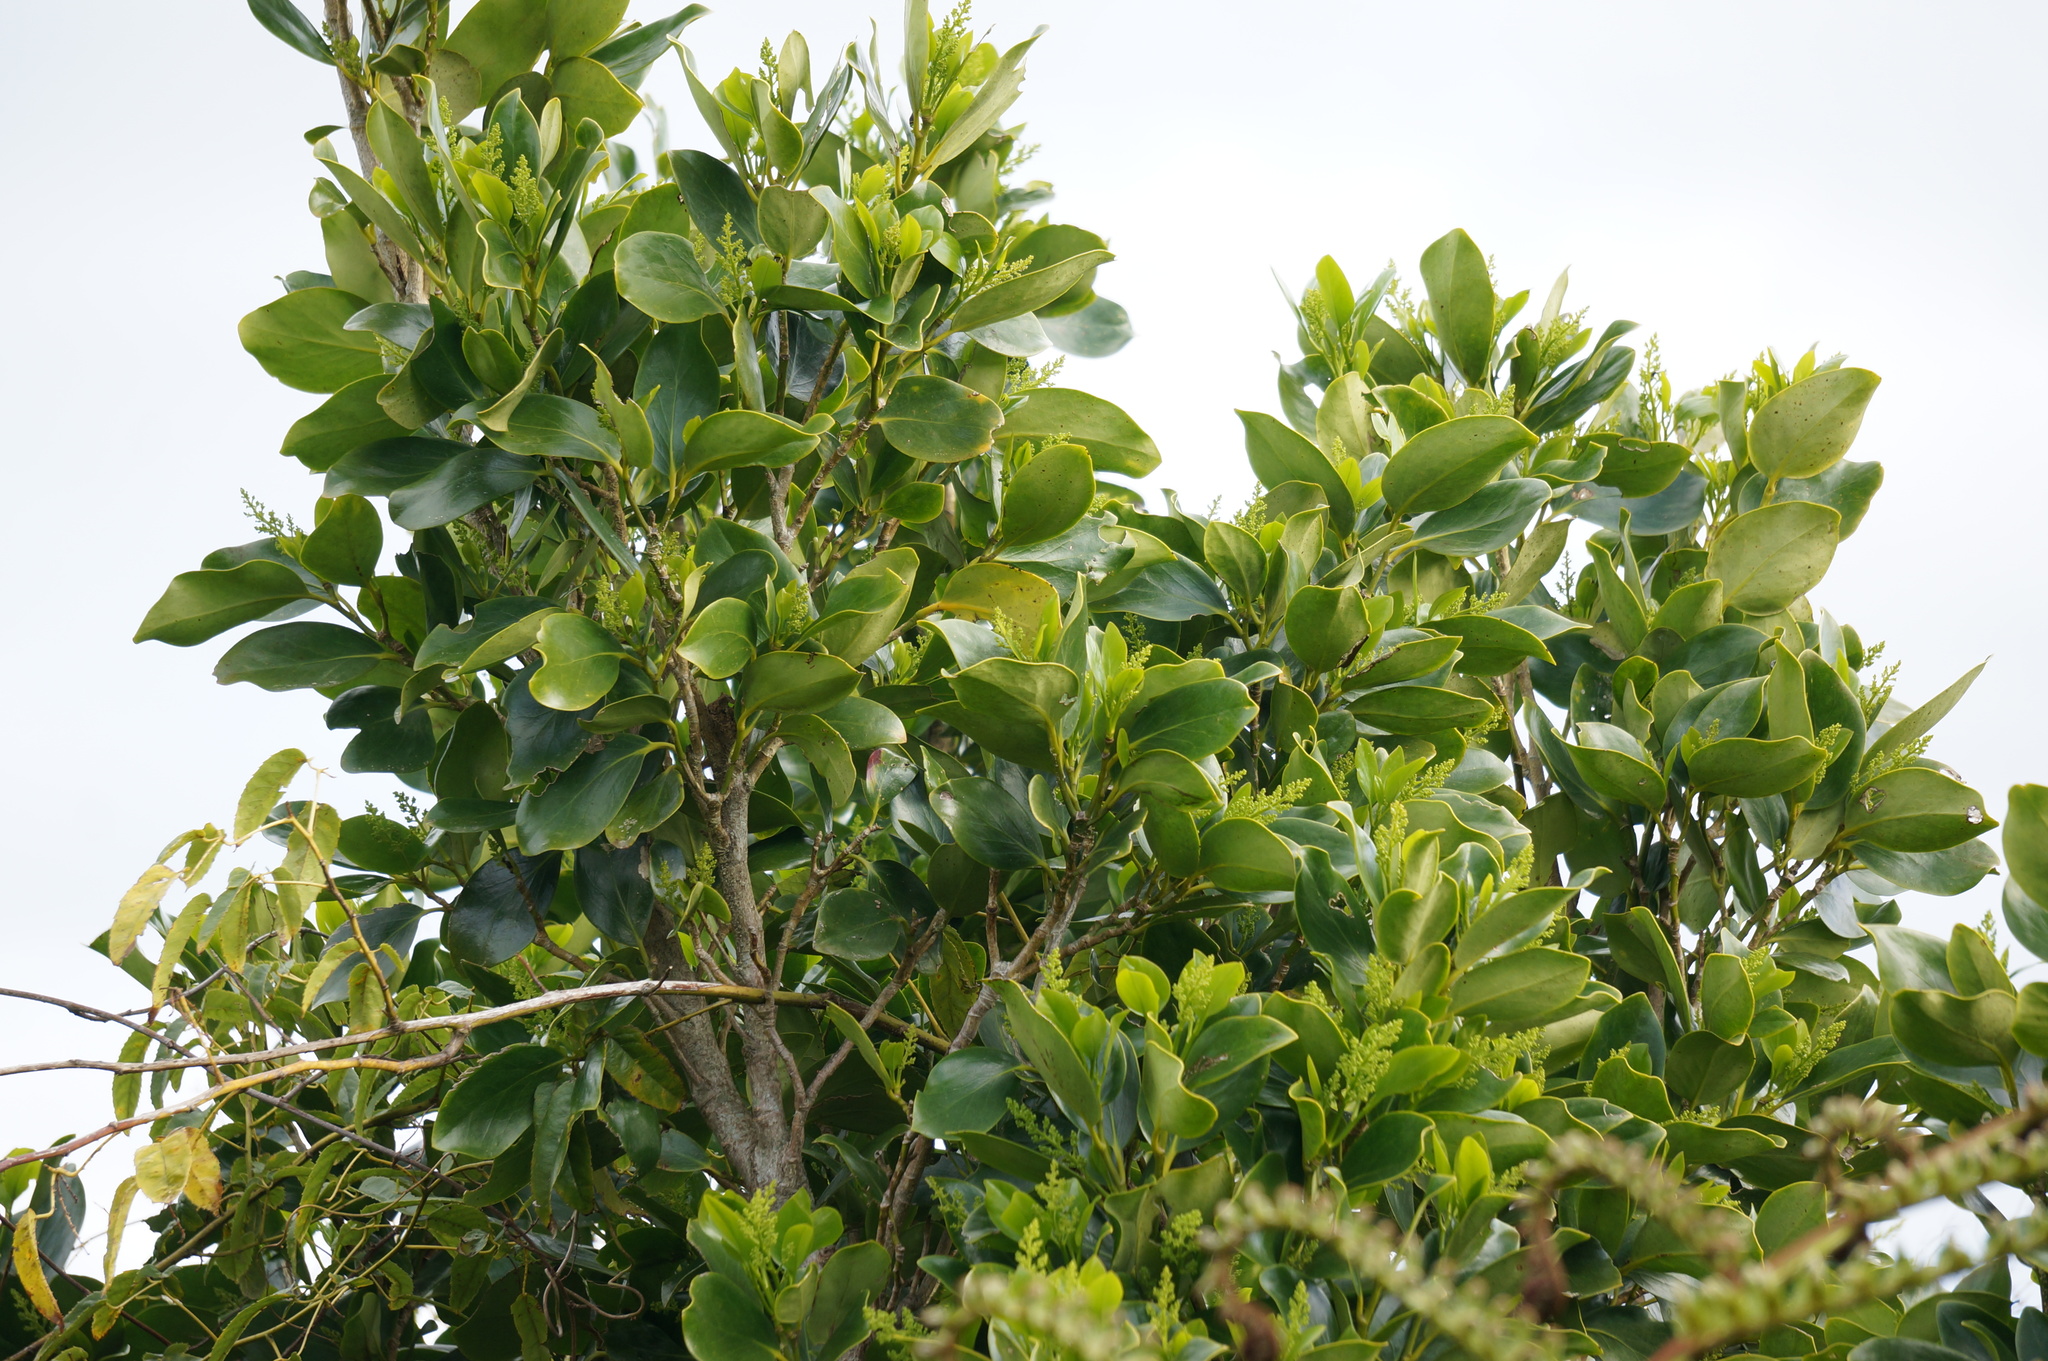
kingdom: Plantae
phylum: Tracheophyta
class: Magnoliopsida
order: Apiales
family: Griseliniaceae
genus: Griselinia
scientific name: Griselinia littoralis
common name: New zealand broadleaf
